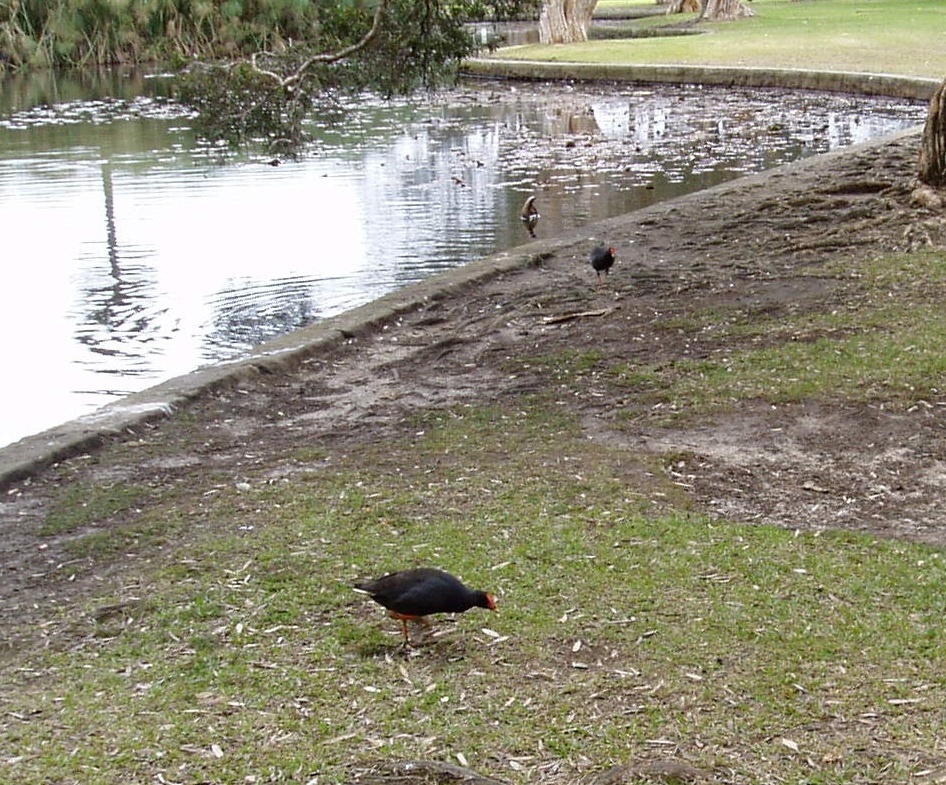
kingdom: Animalia
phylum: Chordata
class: Aves
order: Gruiformes
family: Rallidae
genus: Gallinula
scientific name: Gallinula tenebrosa
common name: Dusky moorhen
